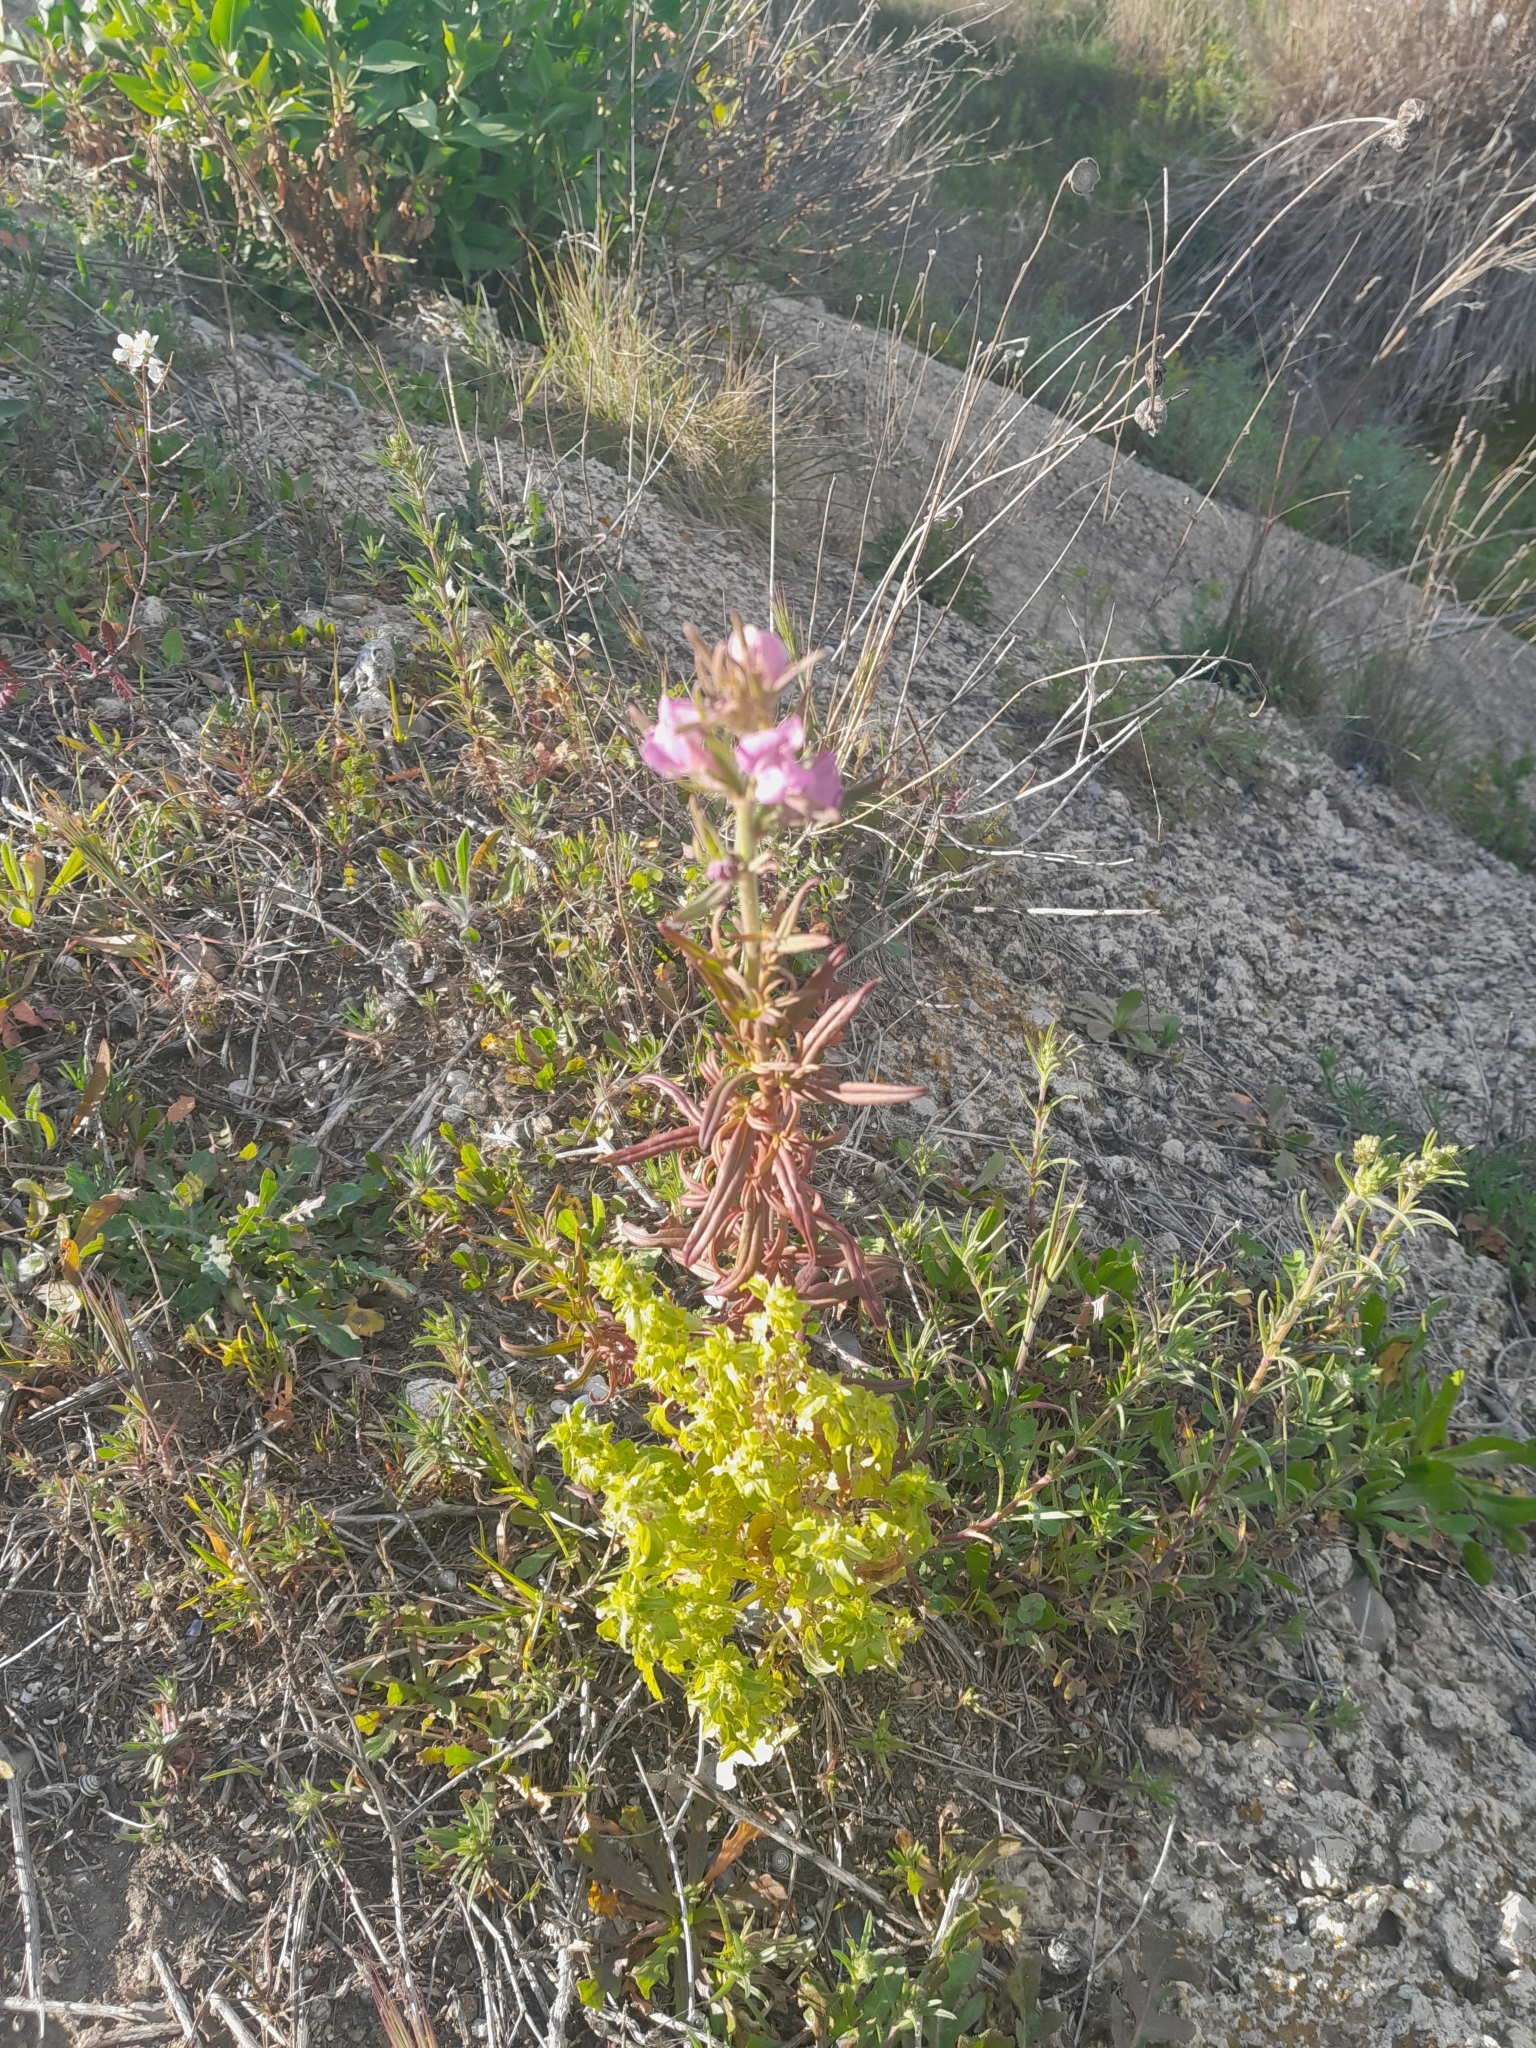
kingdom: Plantae
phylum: Tracheophyta
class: Magnoliopsida
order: Lamiales
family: Plantaginaceae
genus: Misopates
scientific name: Misopates orontium
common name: Weasel's-snout
